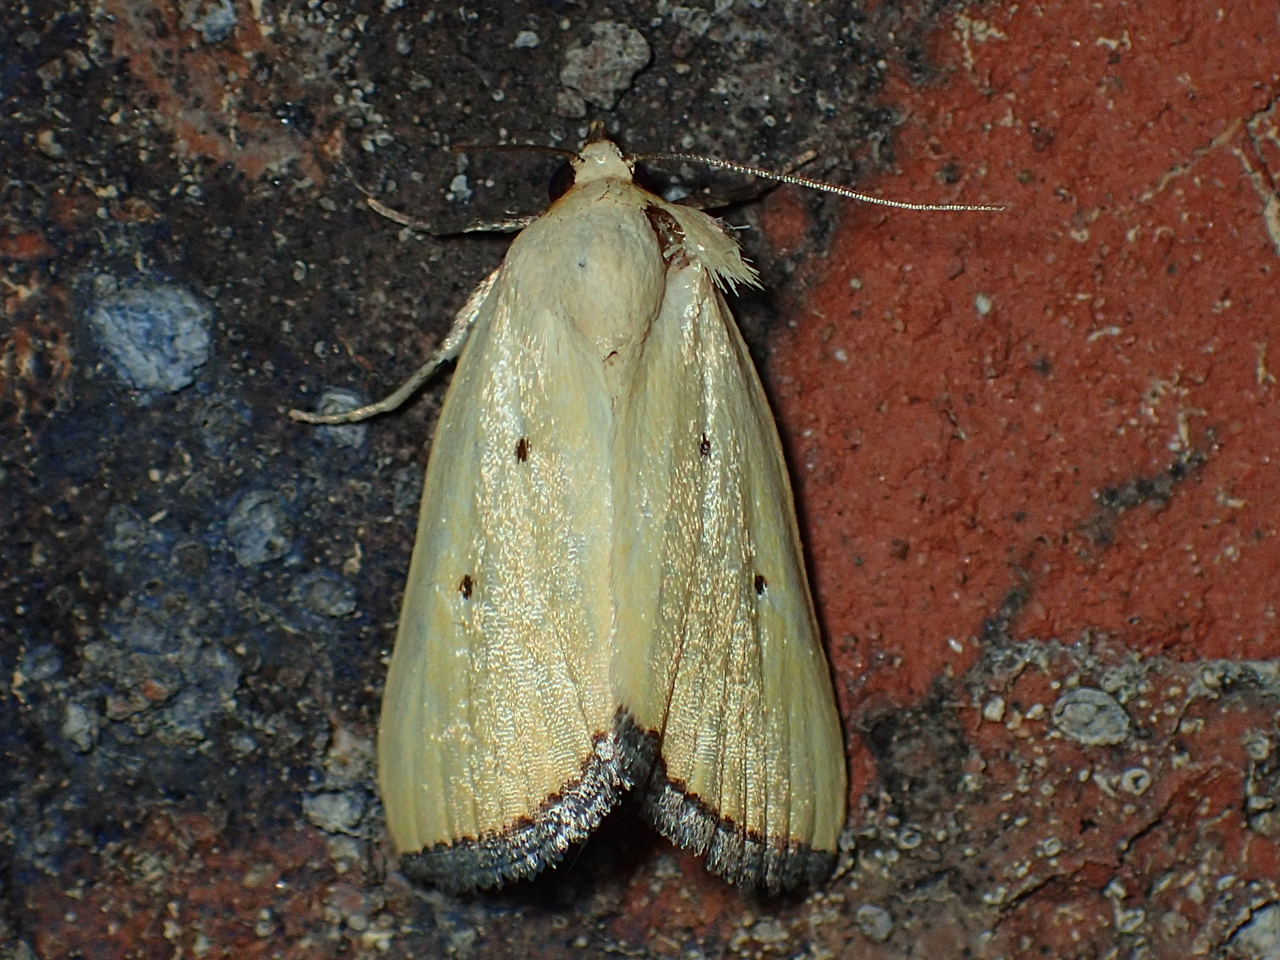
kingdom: Animalia
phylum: Arthropoda
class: Insecta
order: Lepidoptera
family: Noctuidae
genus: Marimatha
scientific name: Marimatha nigrofimbria
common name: Black-bordered lemon moth
